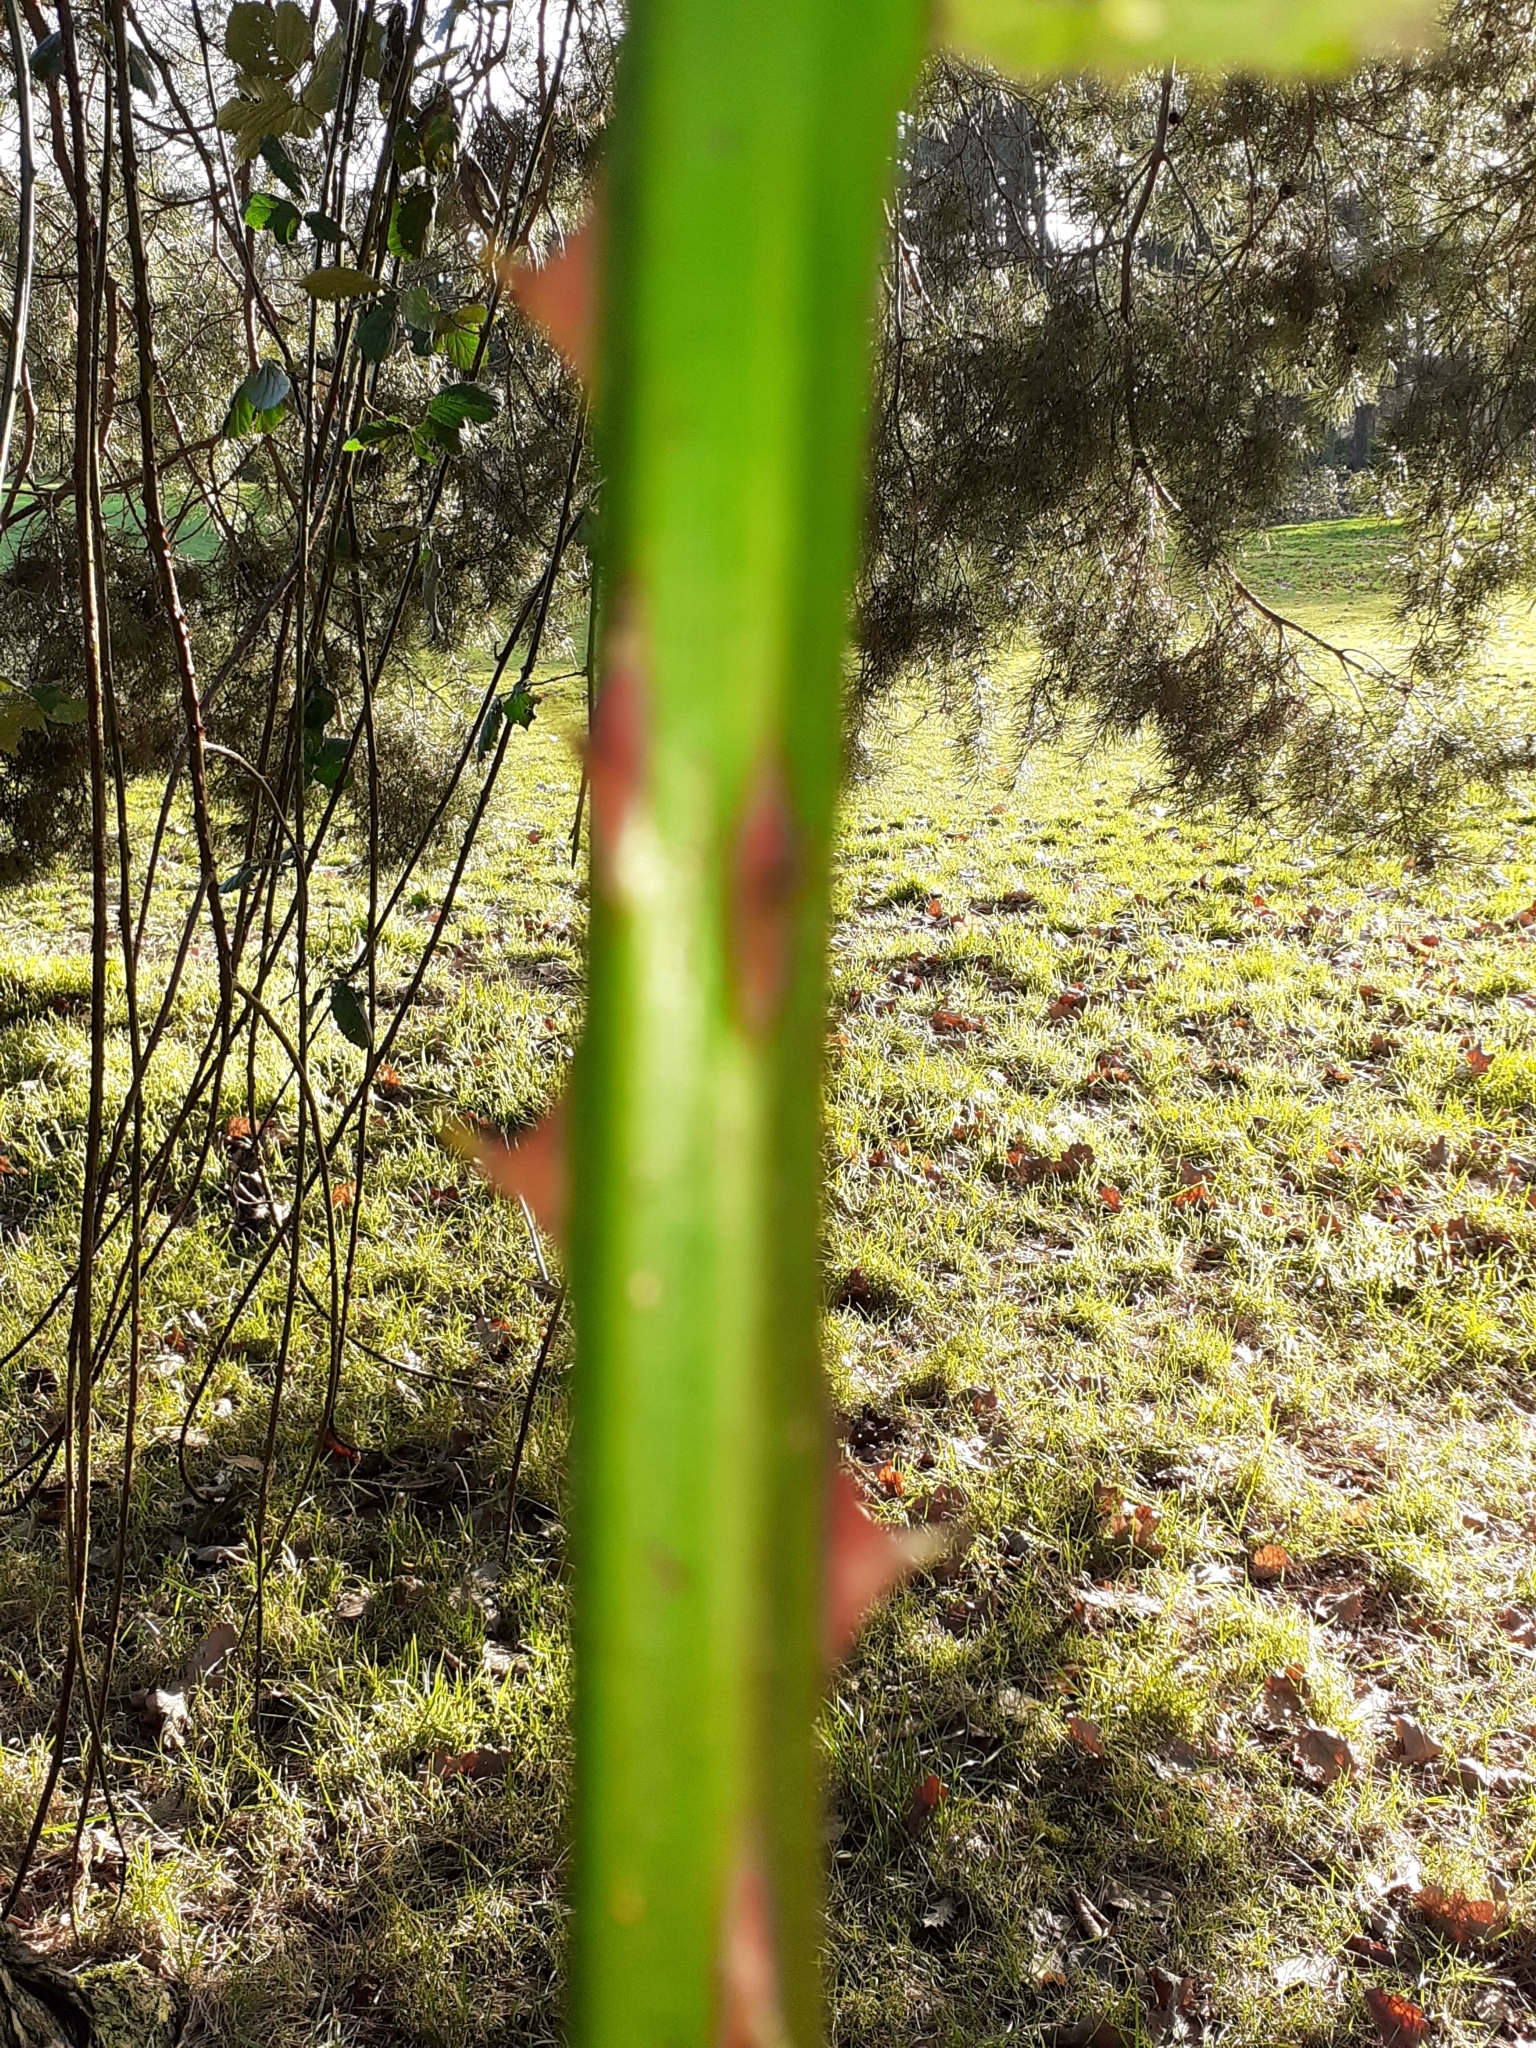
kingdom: Plantae
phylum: Tracheophyta
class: Magnoliopsida
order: Rosales
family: Rosaceae
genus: Rubus
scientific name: Rubus armeniacus
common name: Himalayan blackberry
